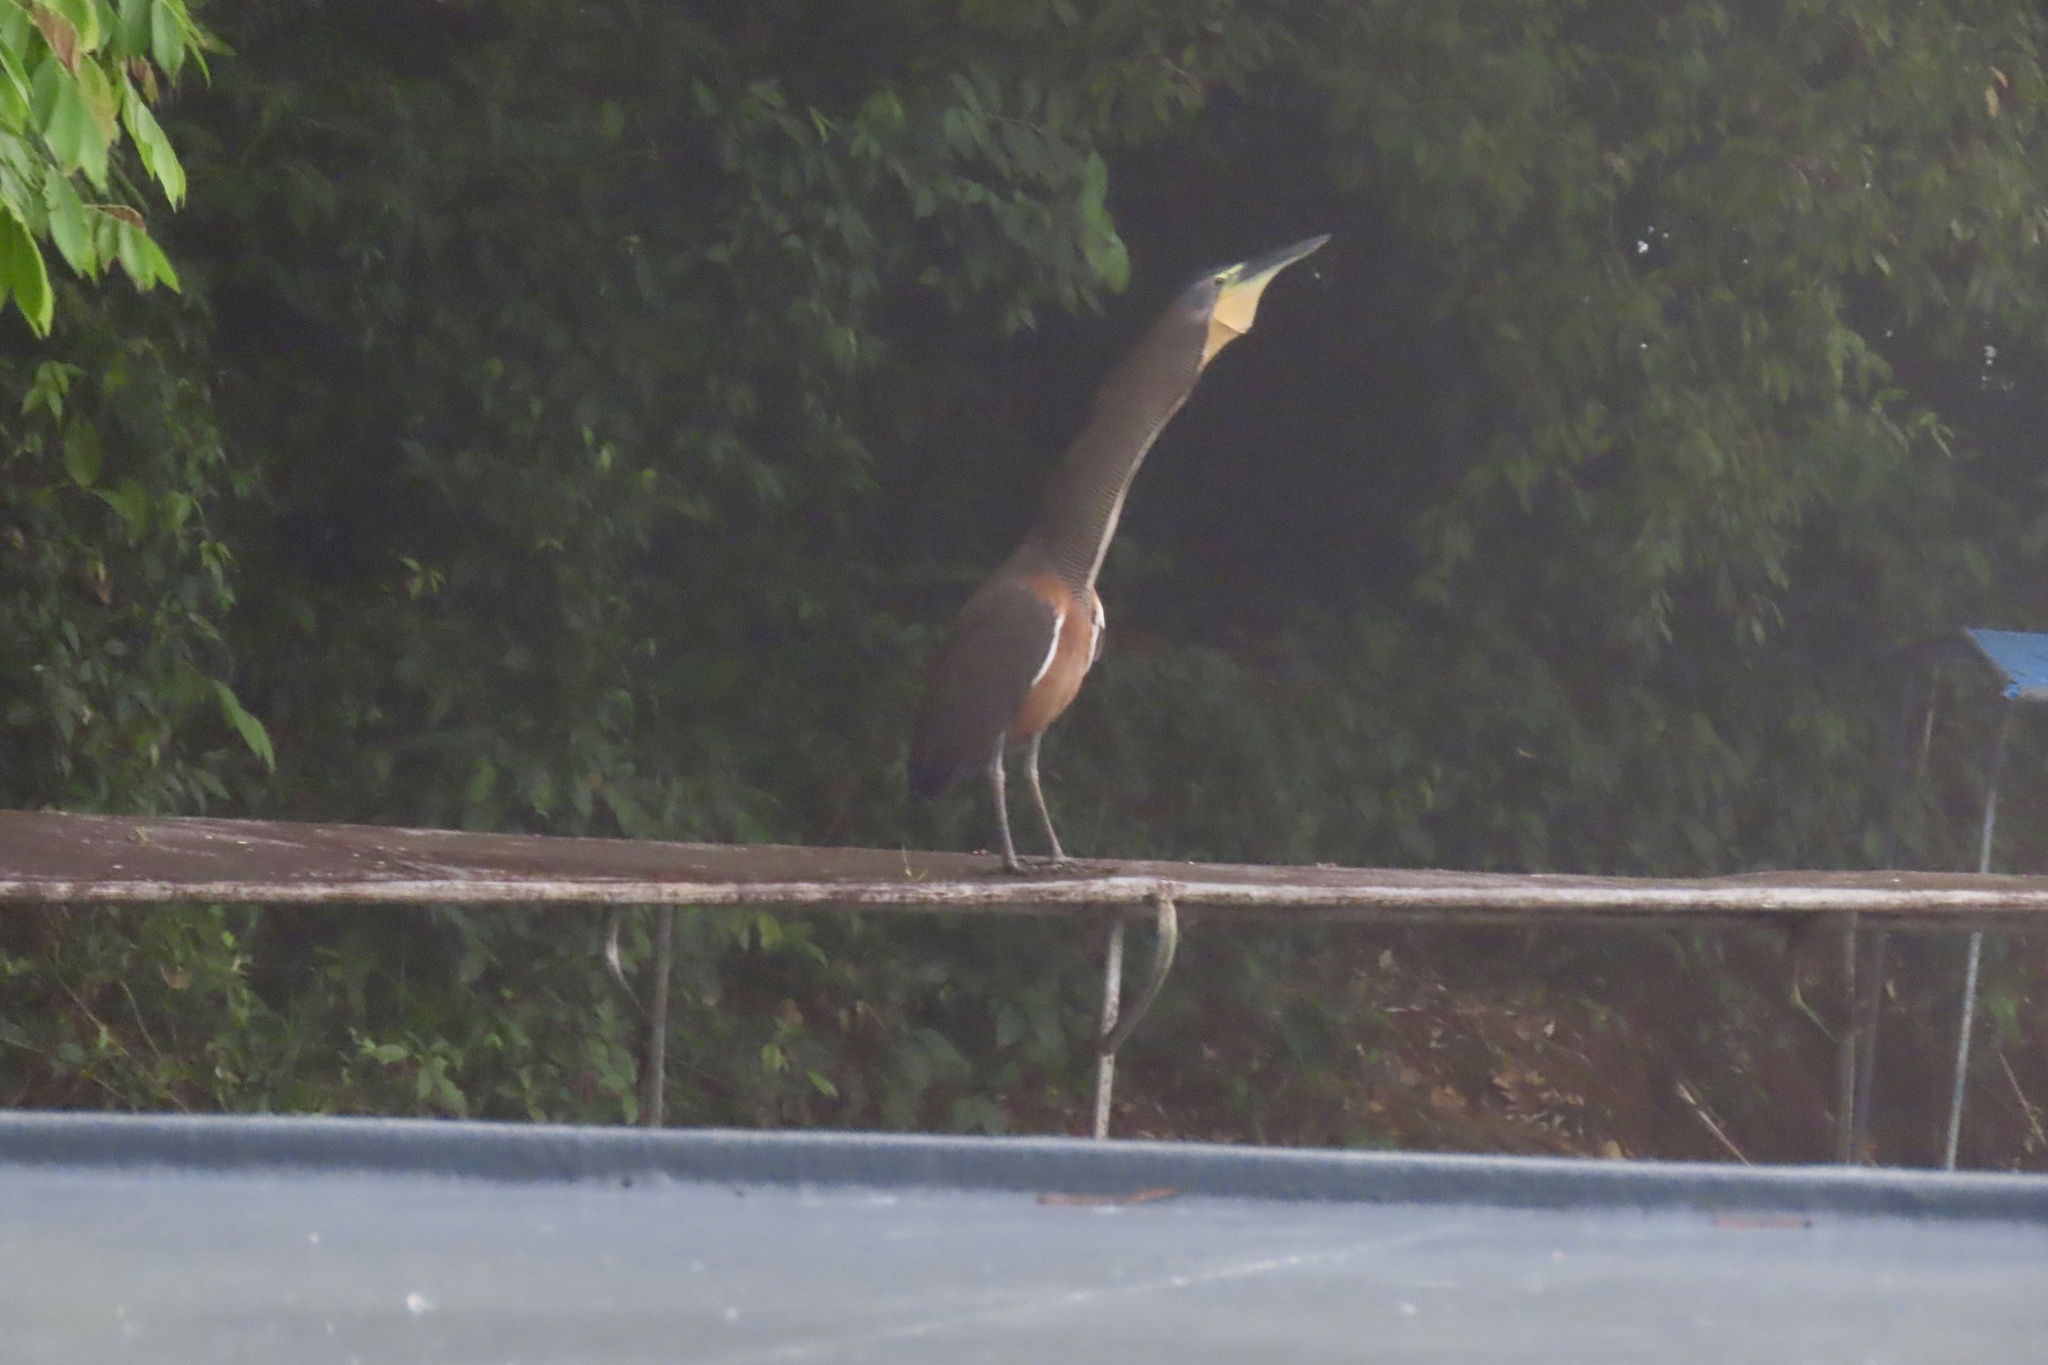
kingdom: Animalia
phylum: Chordata
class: Aves
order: Pelecaniformes
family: Ardeidae
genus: Tigrisoma
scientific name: Tigrisoma mexicanum
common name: Bare-throated tiger-heron
